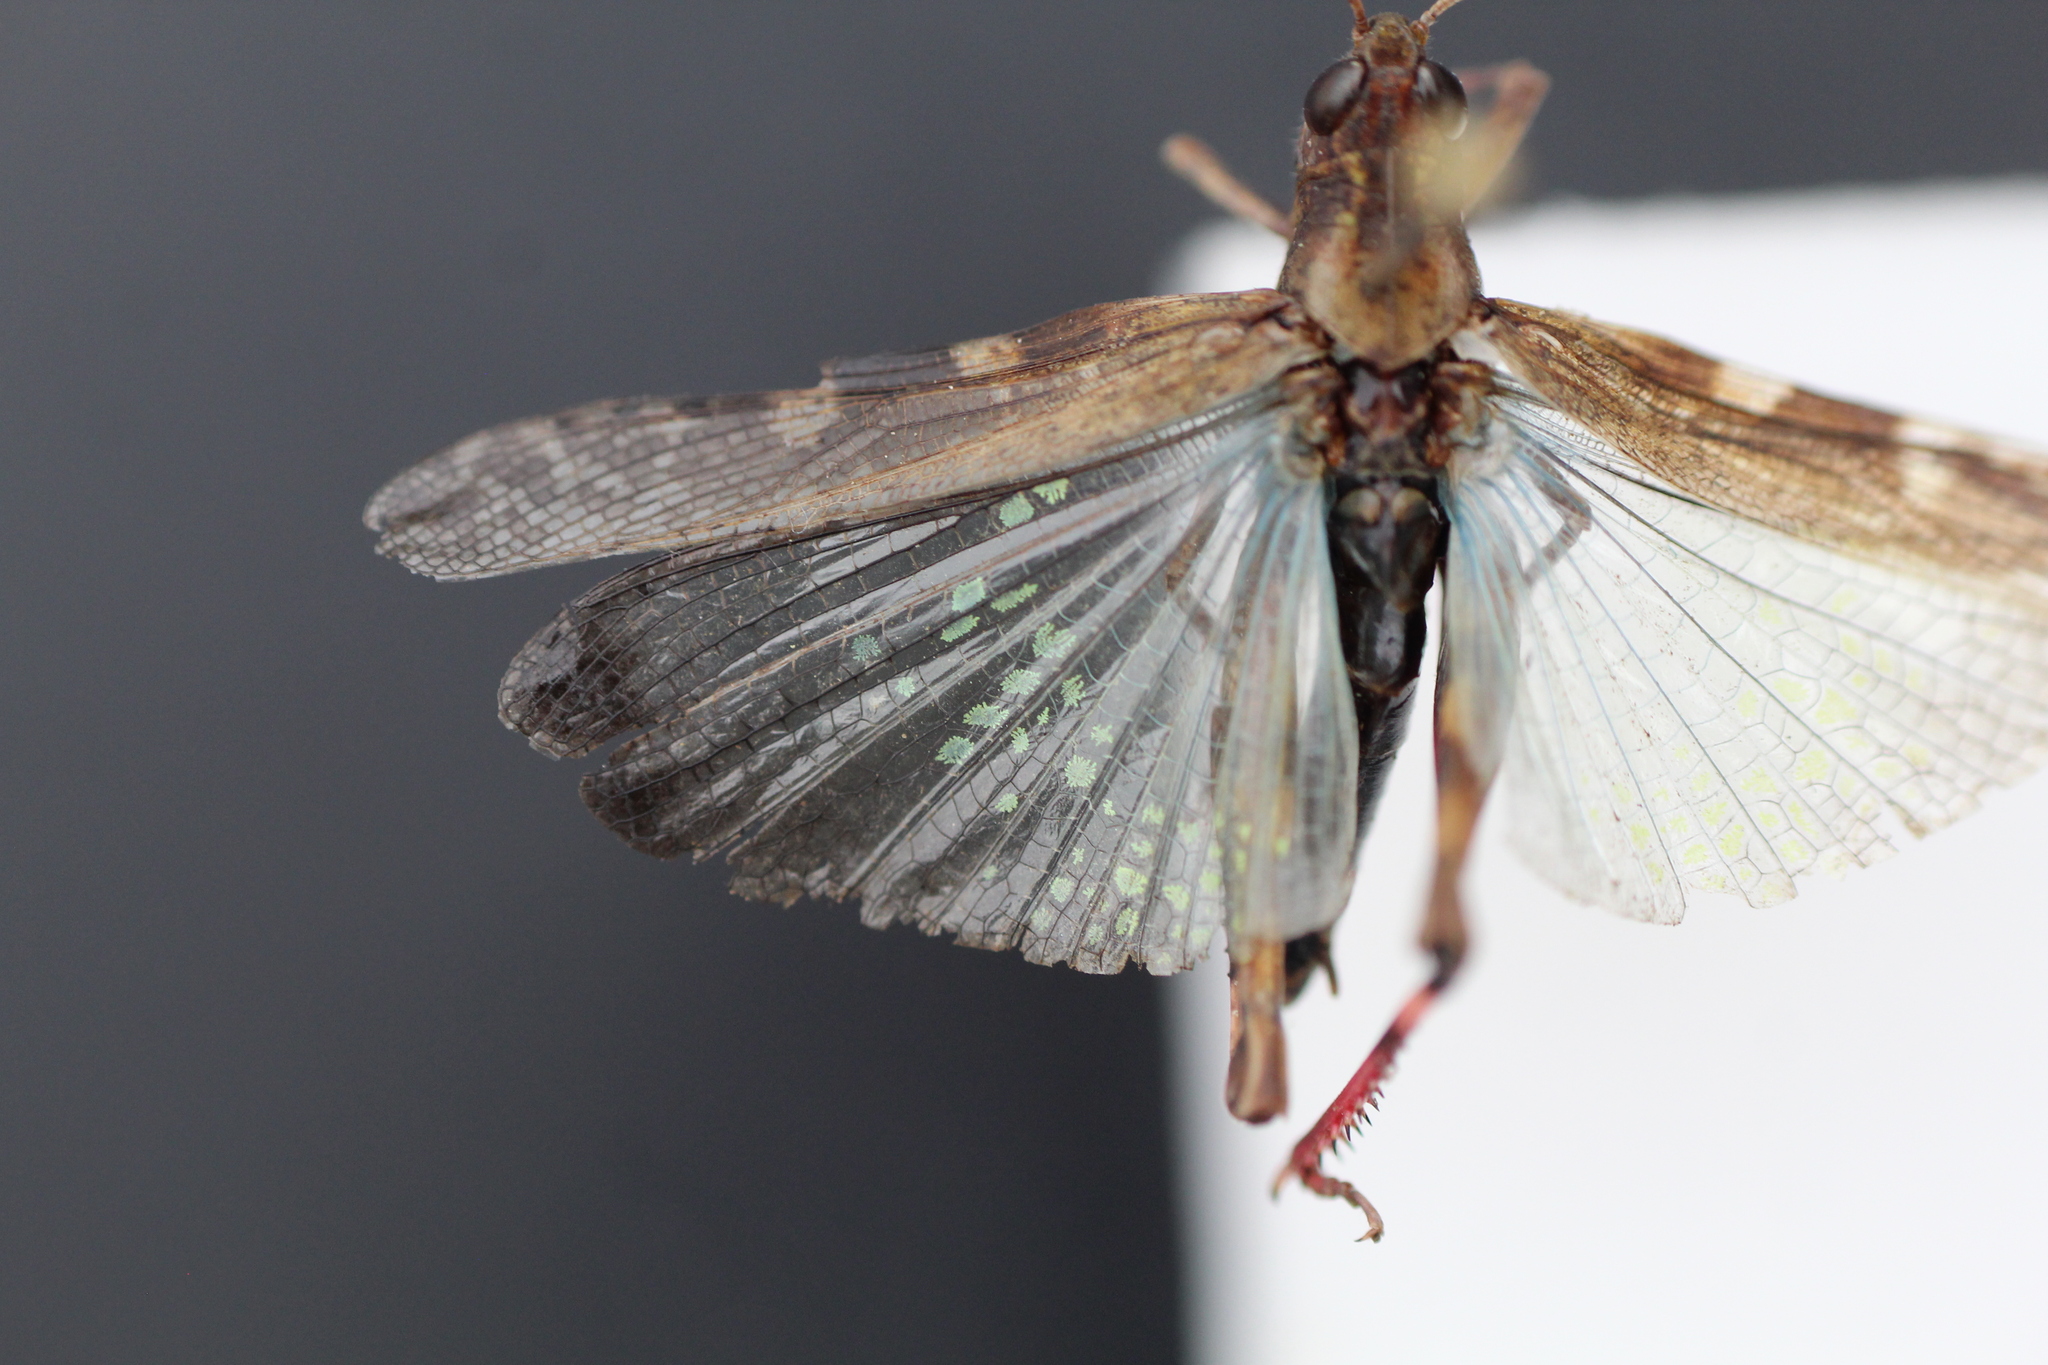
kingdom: Animalia
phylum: Arthropoda
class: Insecta
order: Orthoptera
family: Acrididae
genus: Aiolopus
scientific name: Aiolopus strepens
